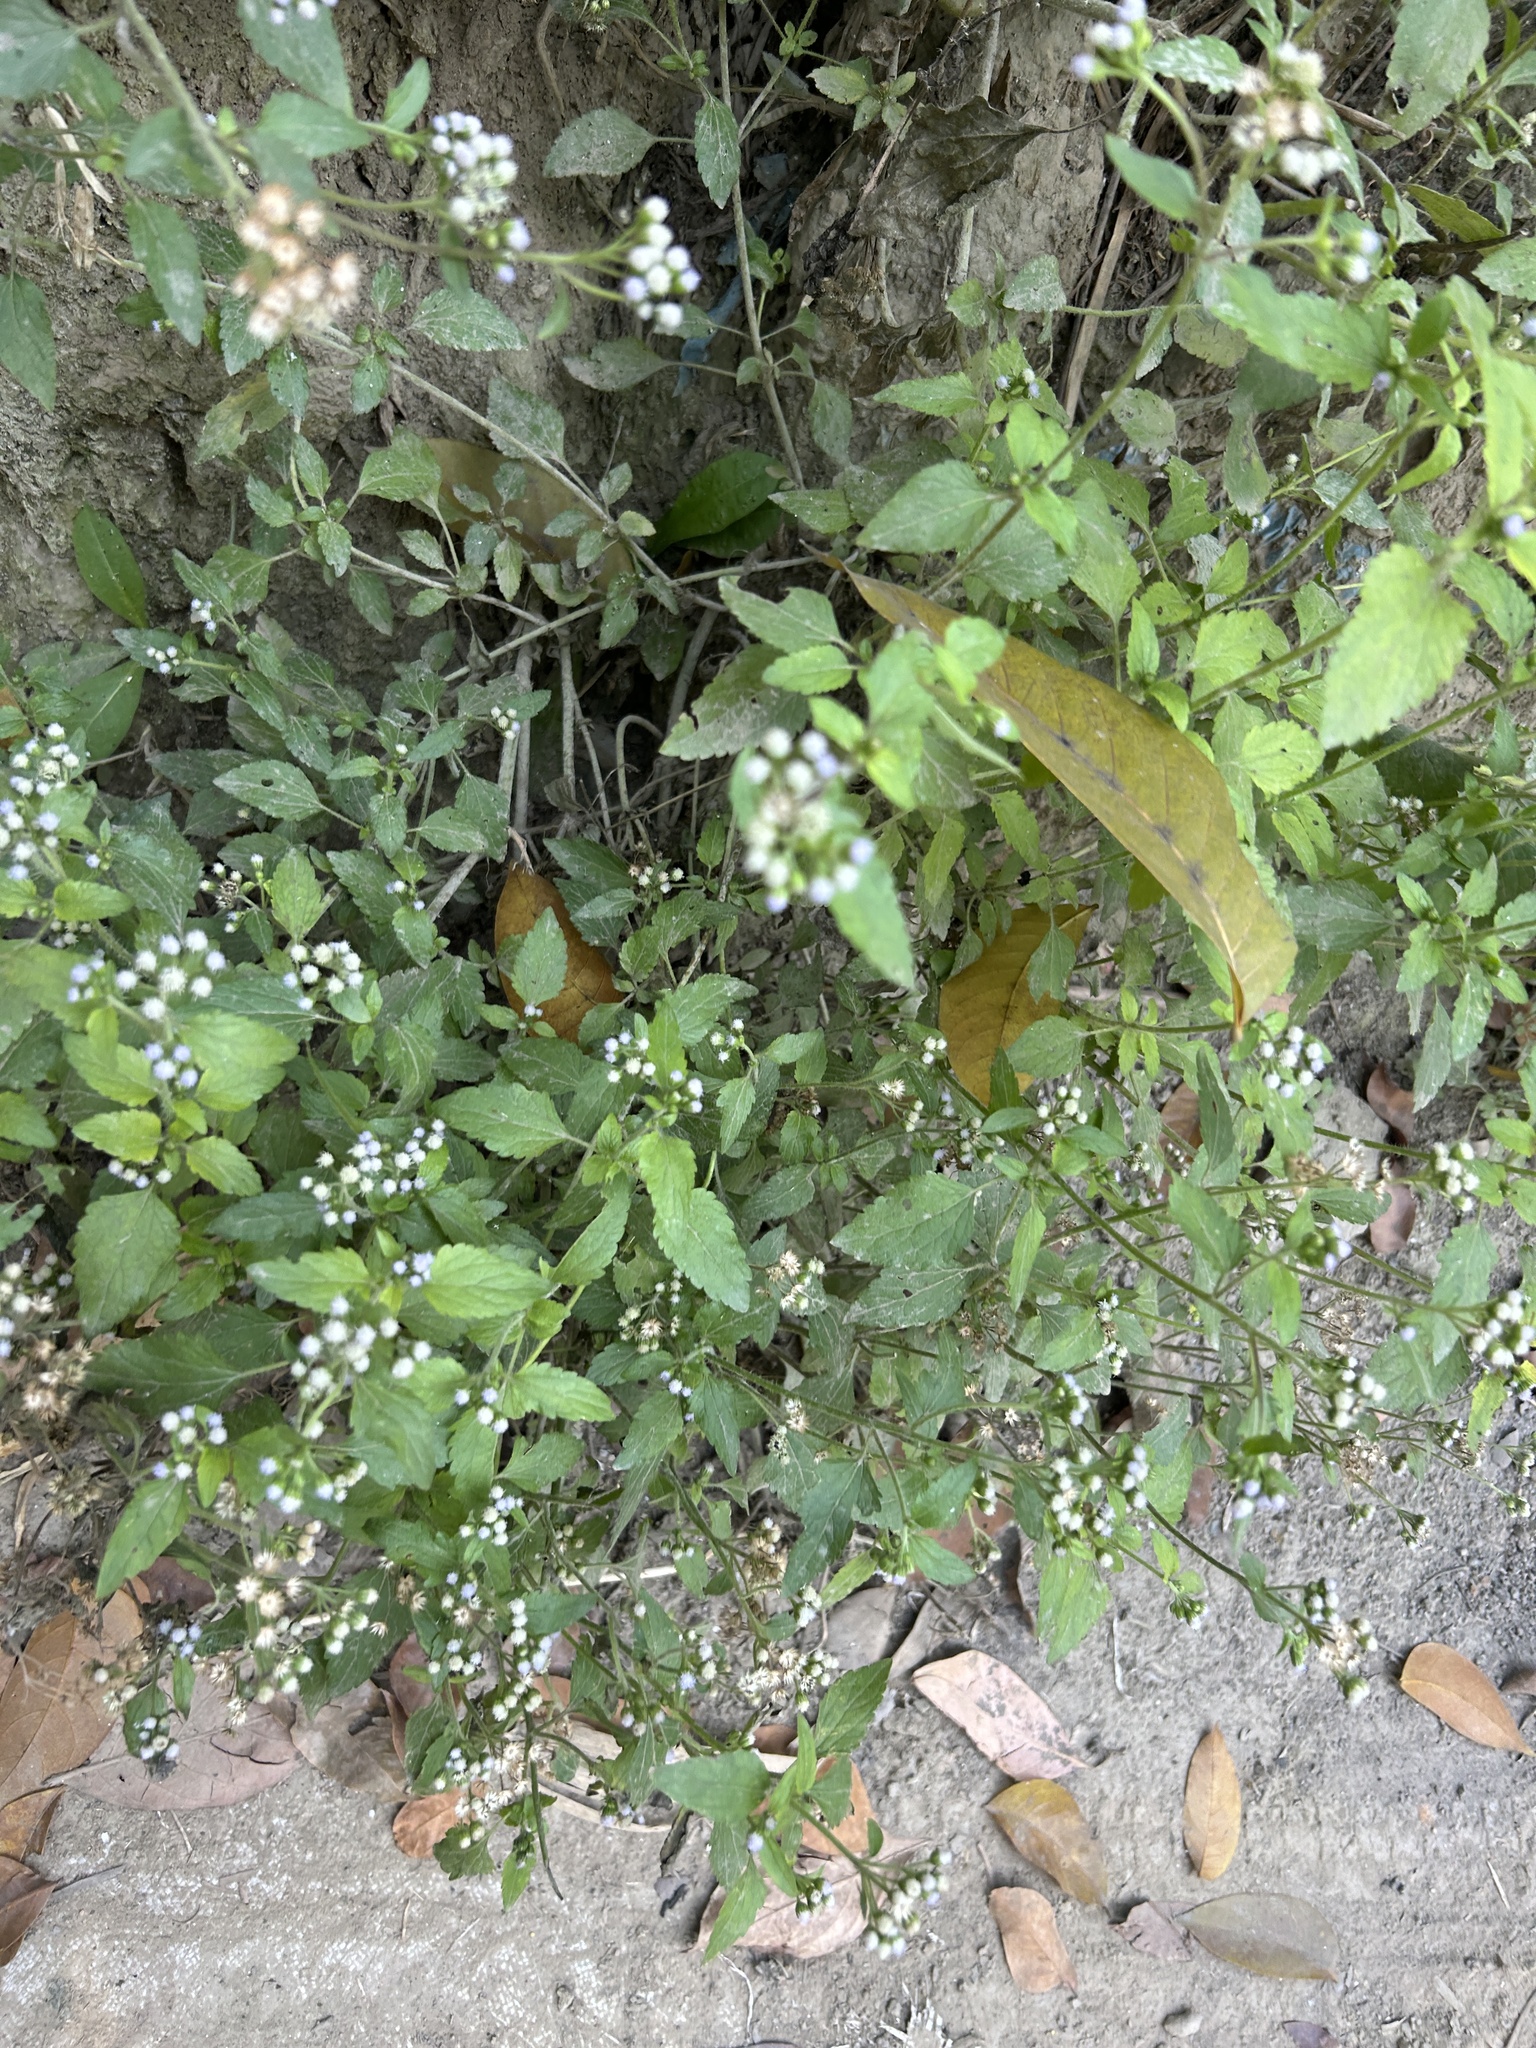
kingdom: Plantae
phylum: Tracheophyta
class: Magnoliopsida
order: Asterales
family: Asteraceae
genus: Ageratum
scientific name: Ageratum conyzoides
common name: Tropical whiteweed
